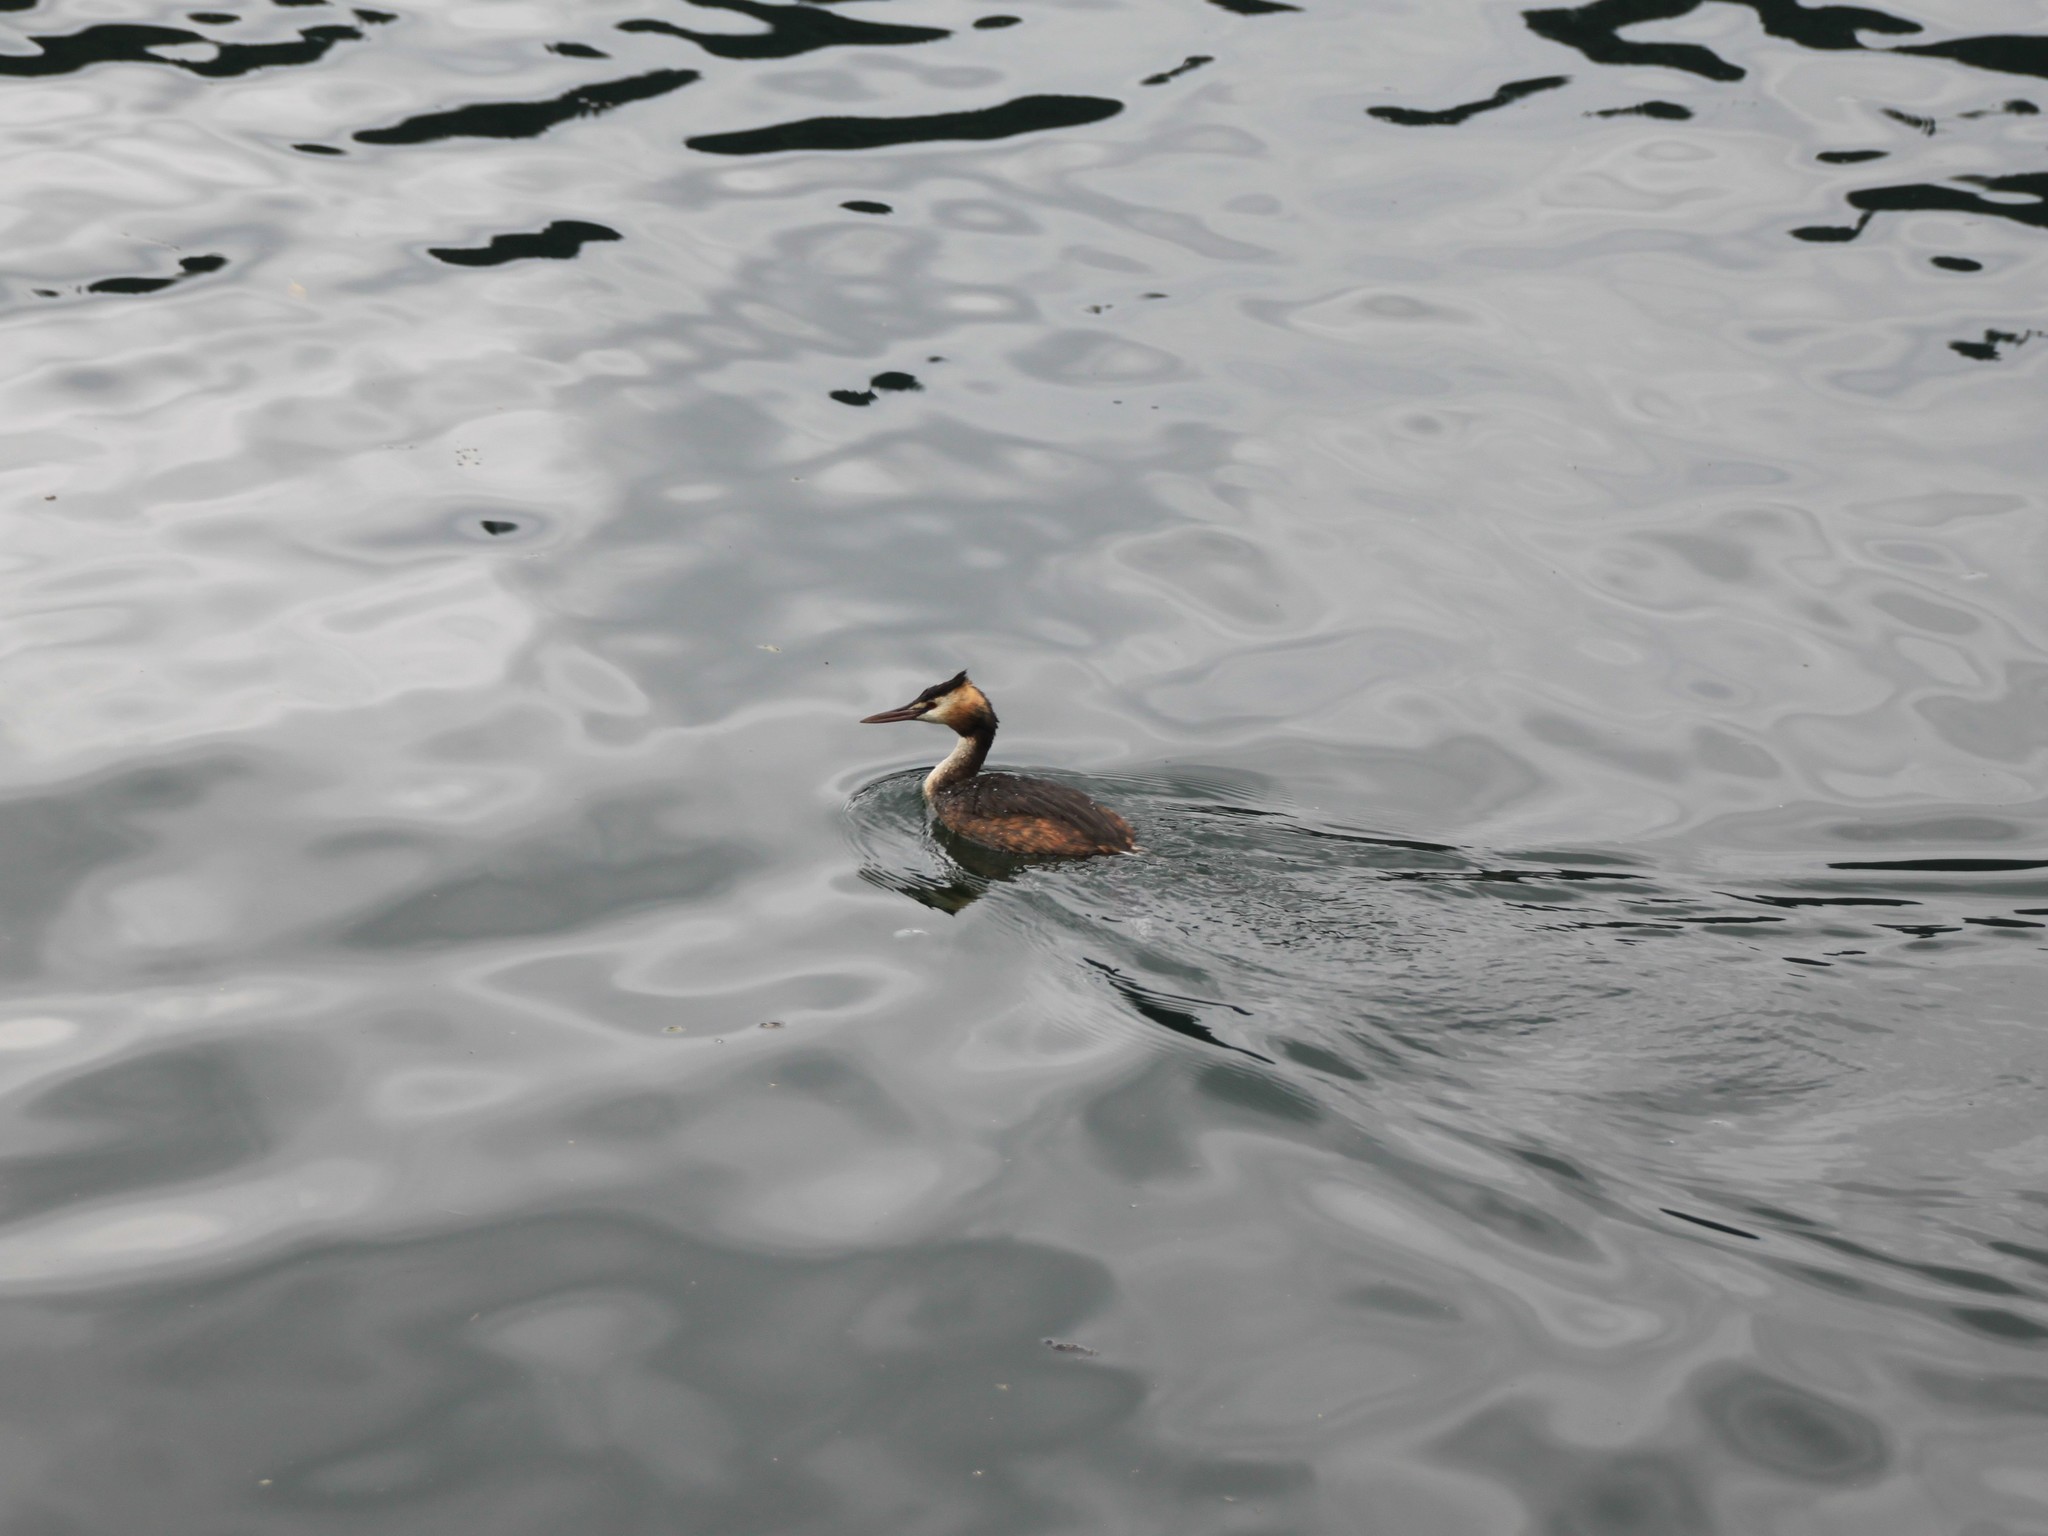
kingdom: Animalia
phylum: Chordata
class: Aves
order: Podicipediformes
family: Podicipedidae
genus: Podiceps
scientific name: Podiceps cristatus
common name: Great crested grebe
